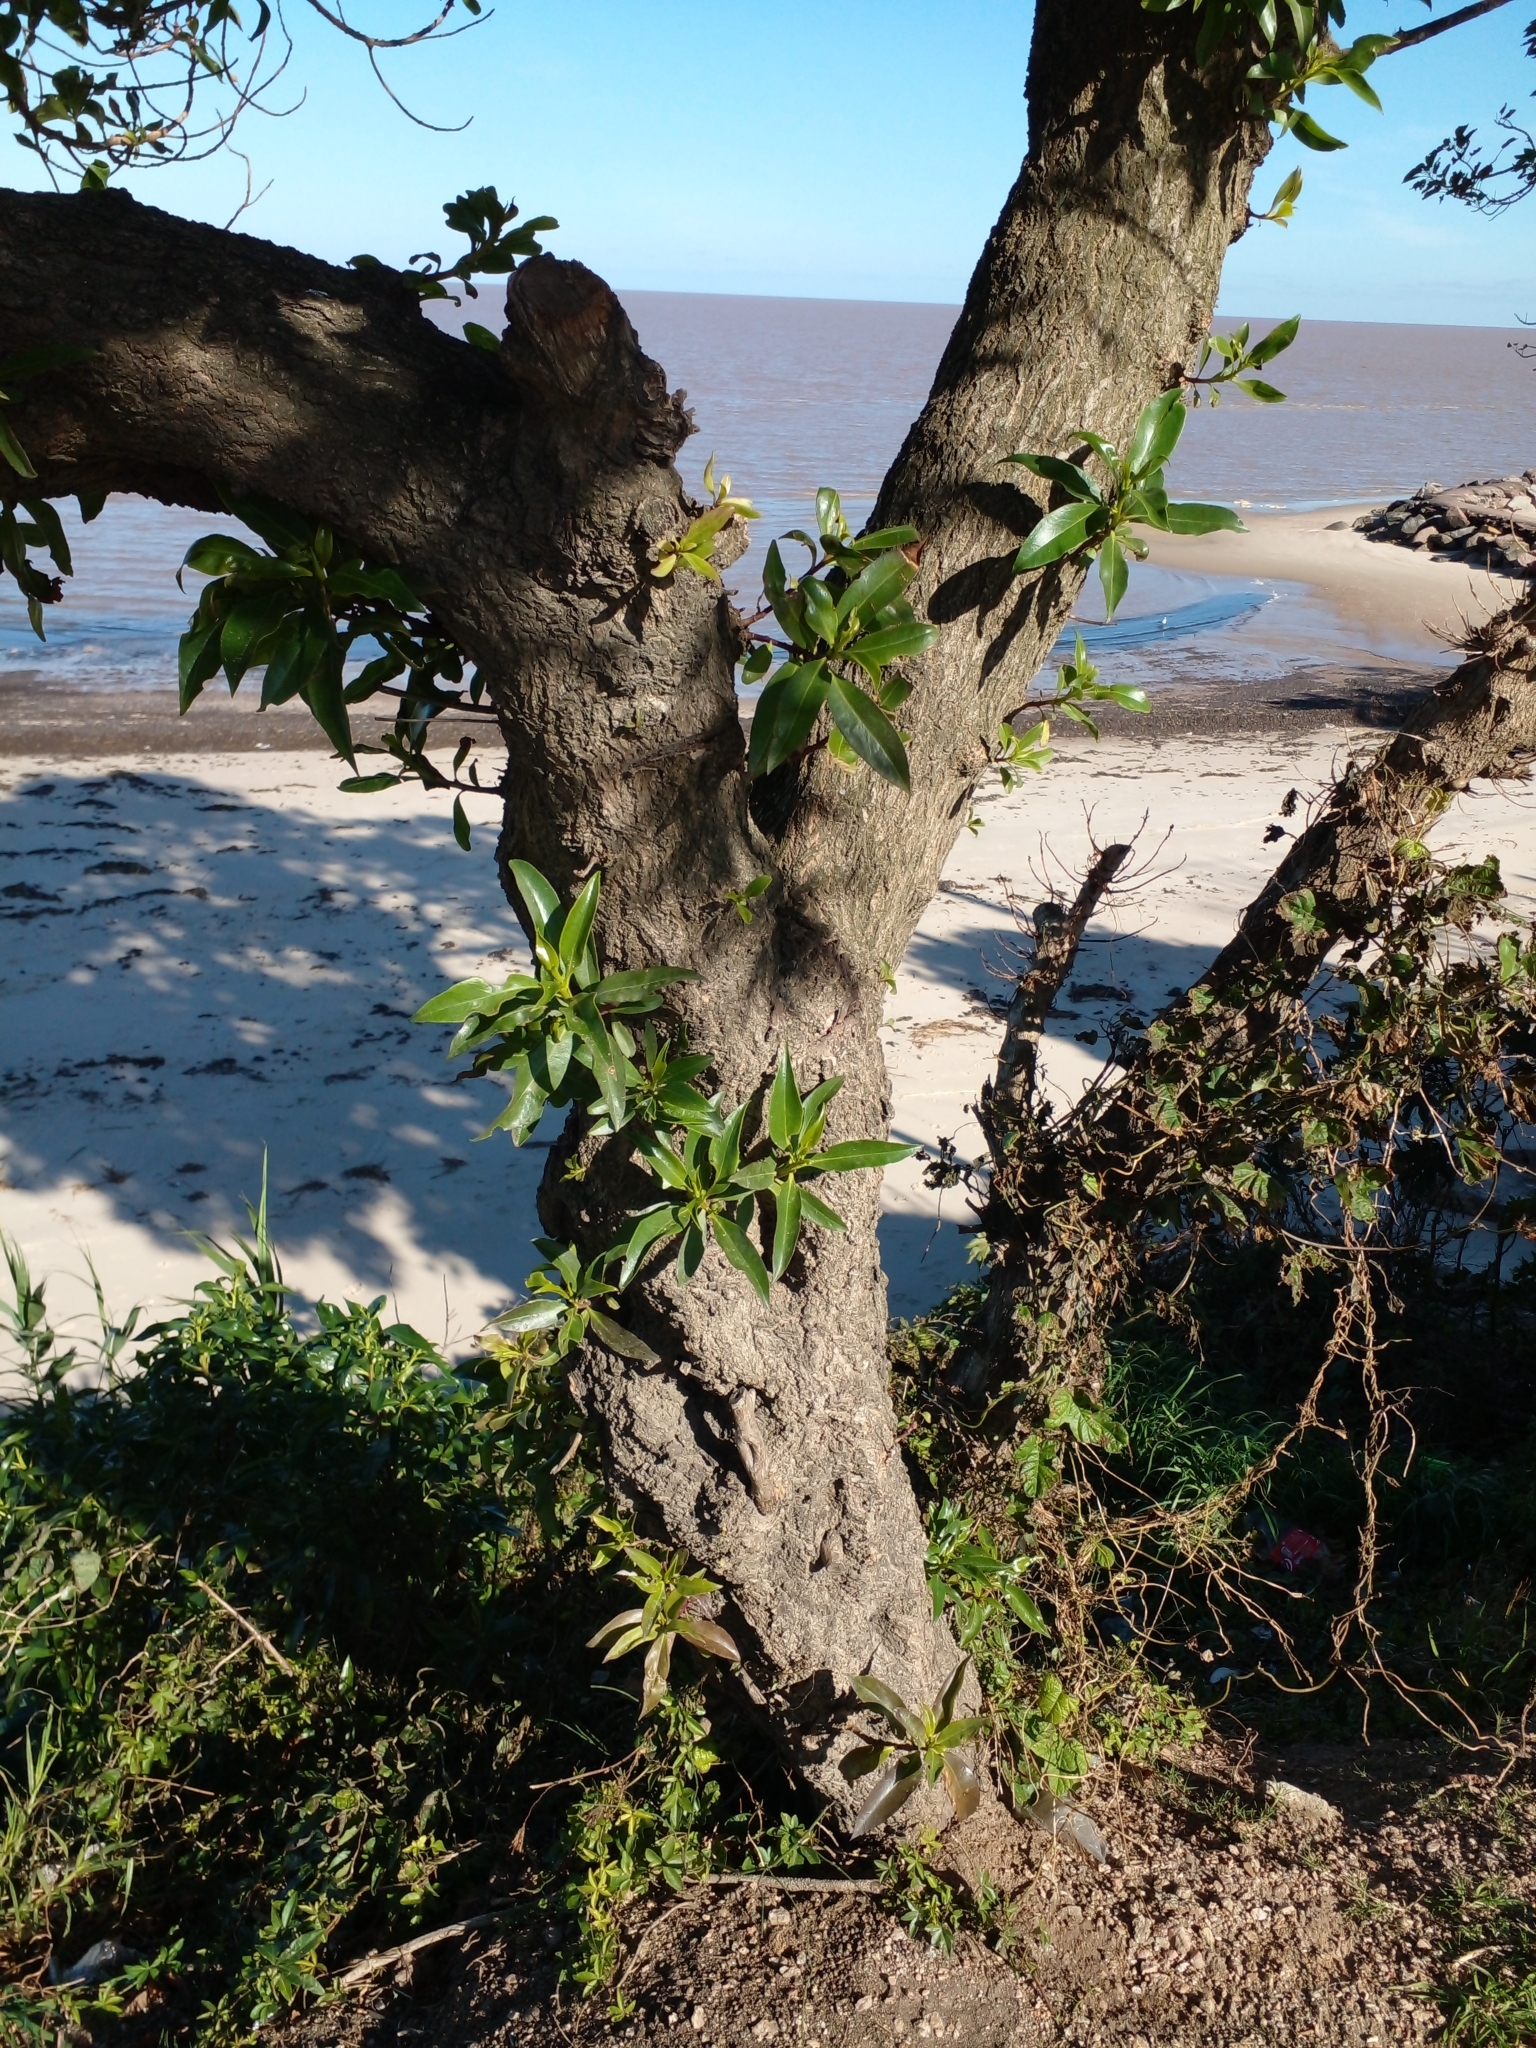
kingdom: Plantae
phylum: Tracheophyta
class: Magnoliopsida
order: Lamiales
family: Scrophulariaceae
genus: Myoporum
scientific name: Myoporum laetum
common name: Ngaio tree
